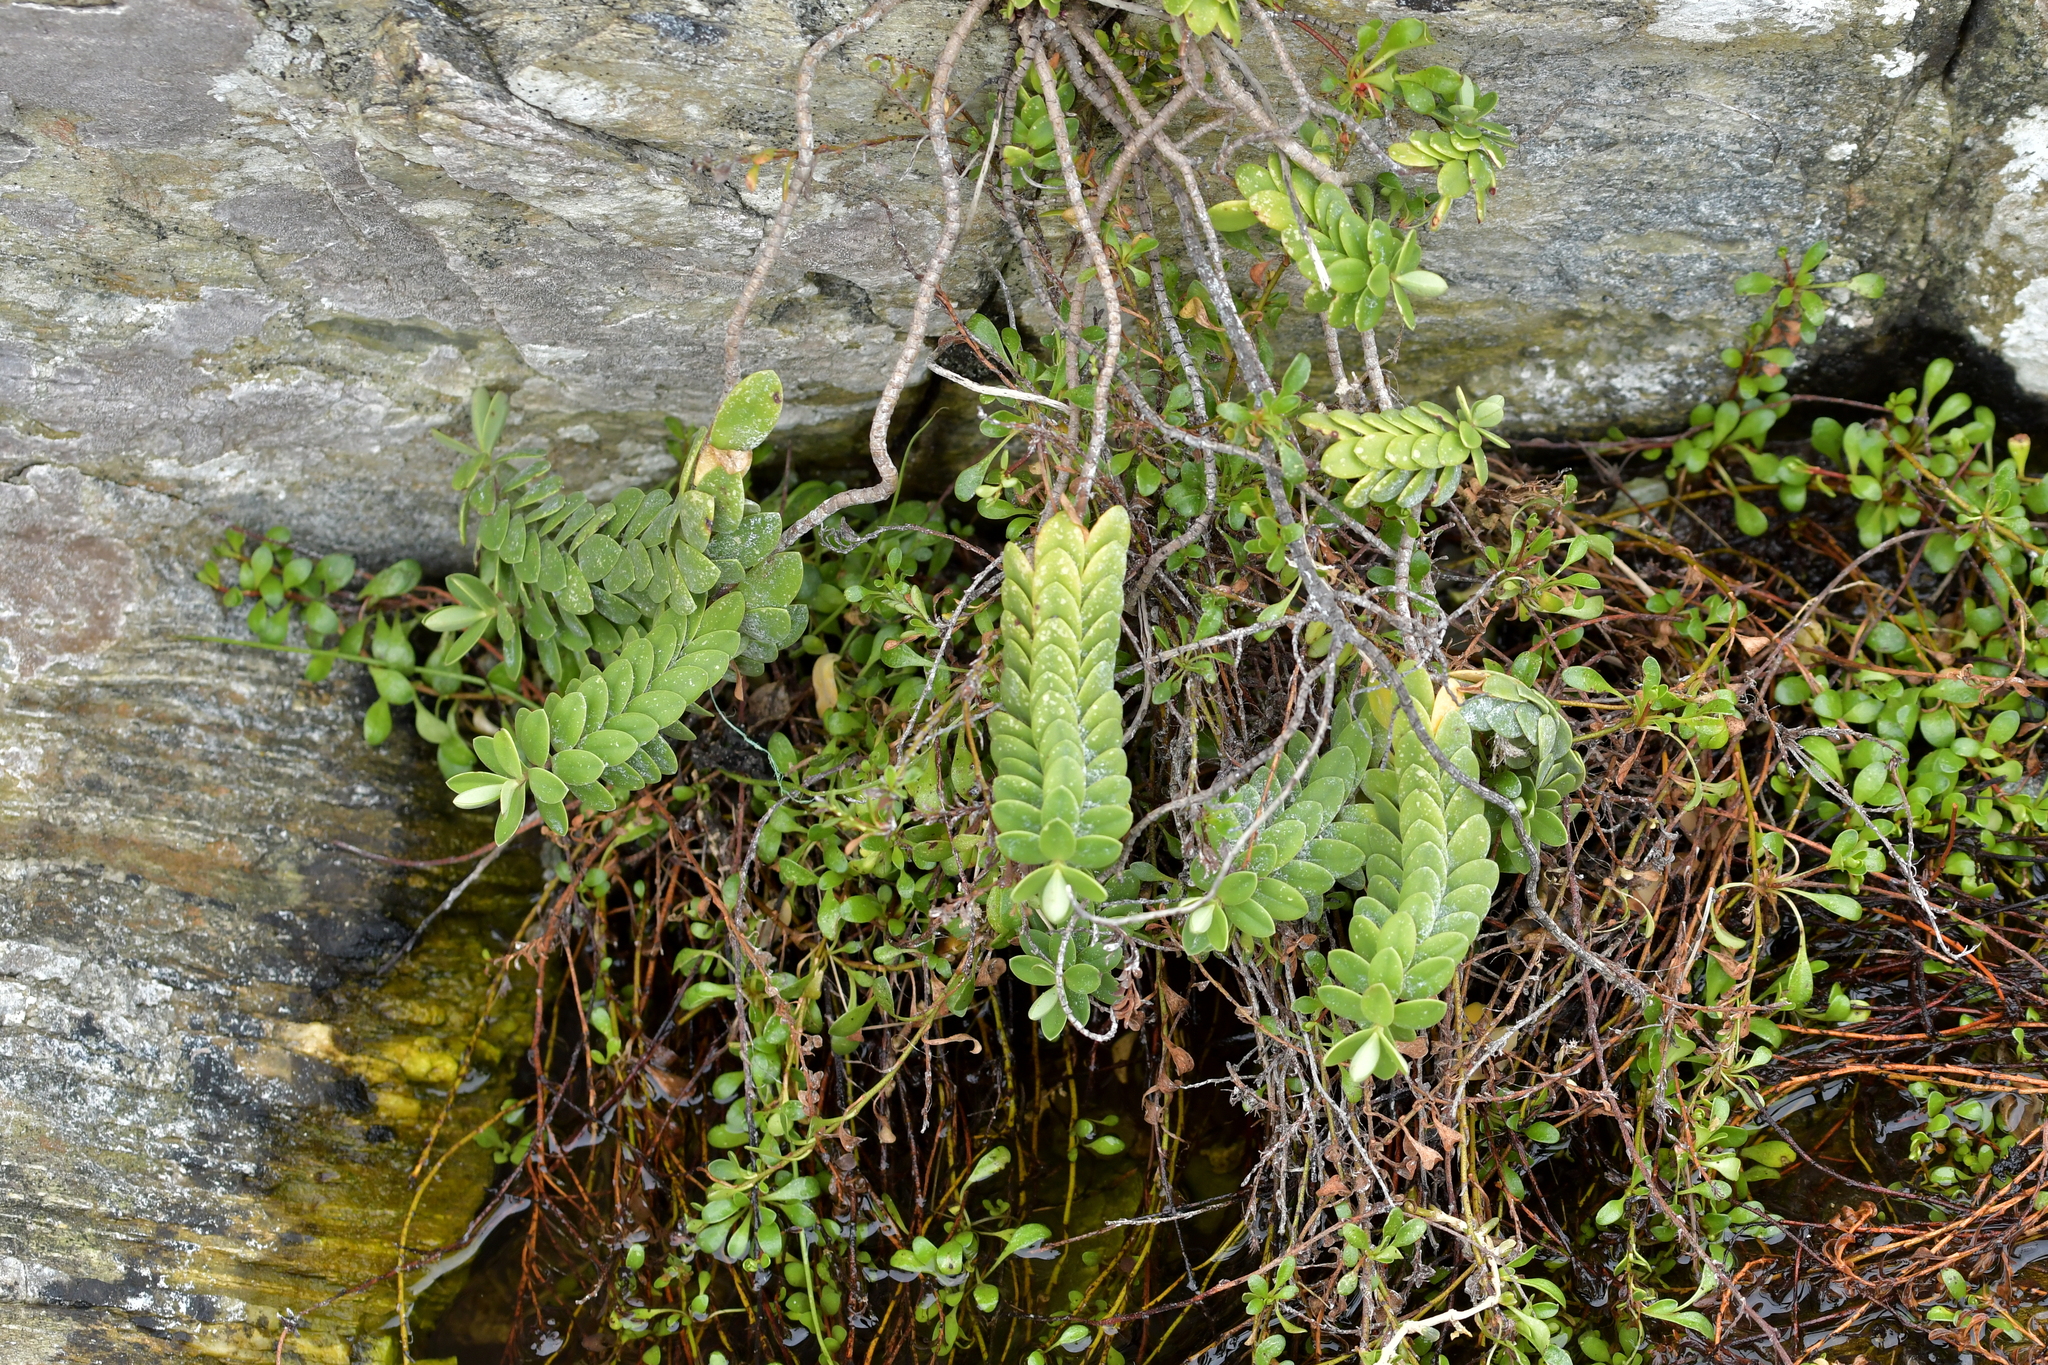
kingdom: Plantae
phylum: Tracheophyta
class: Magnoliopsida
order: Lamiales
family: Plantaginaceae
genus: Veronica
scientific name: Veronica chathamica
